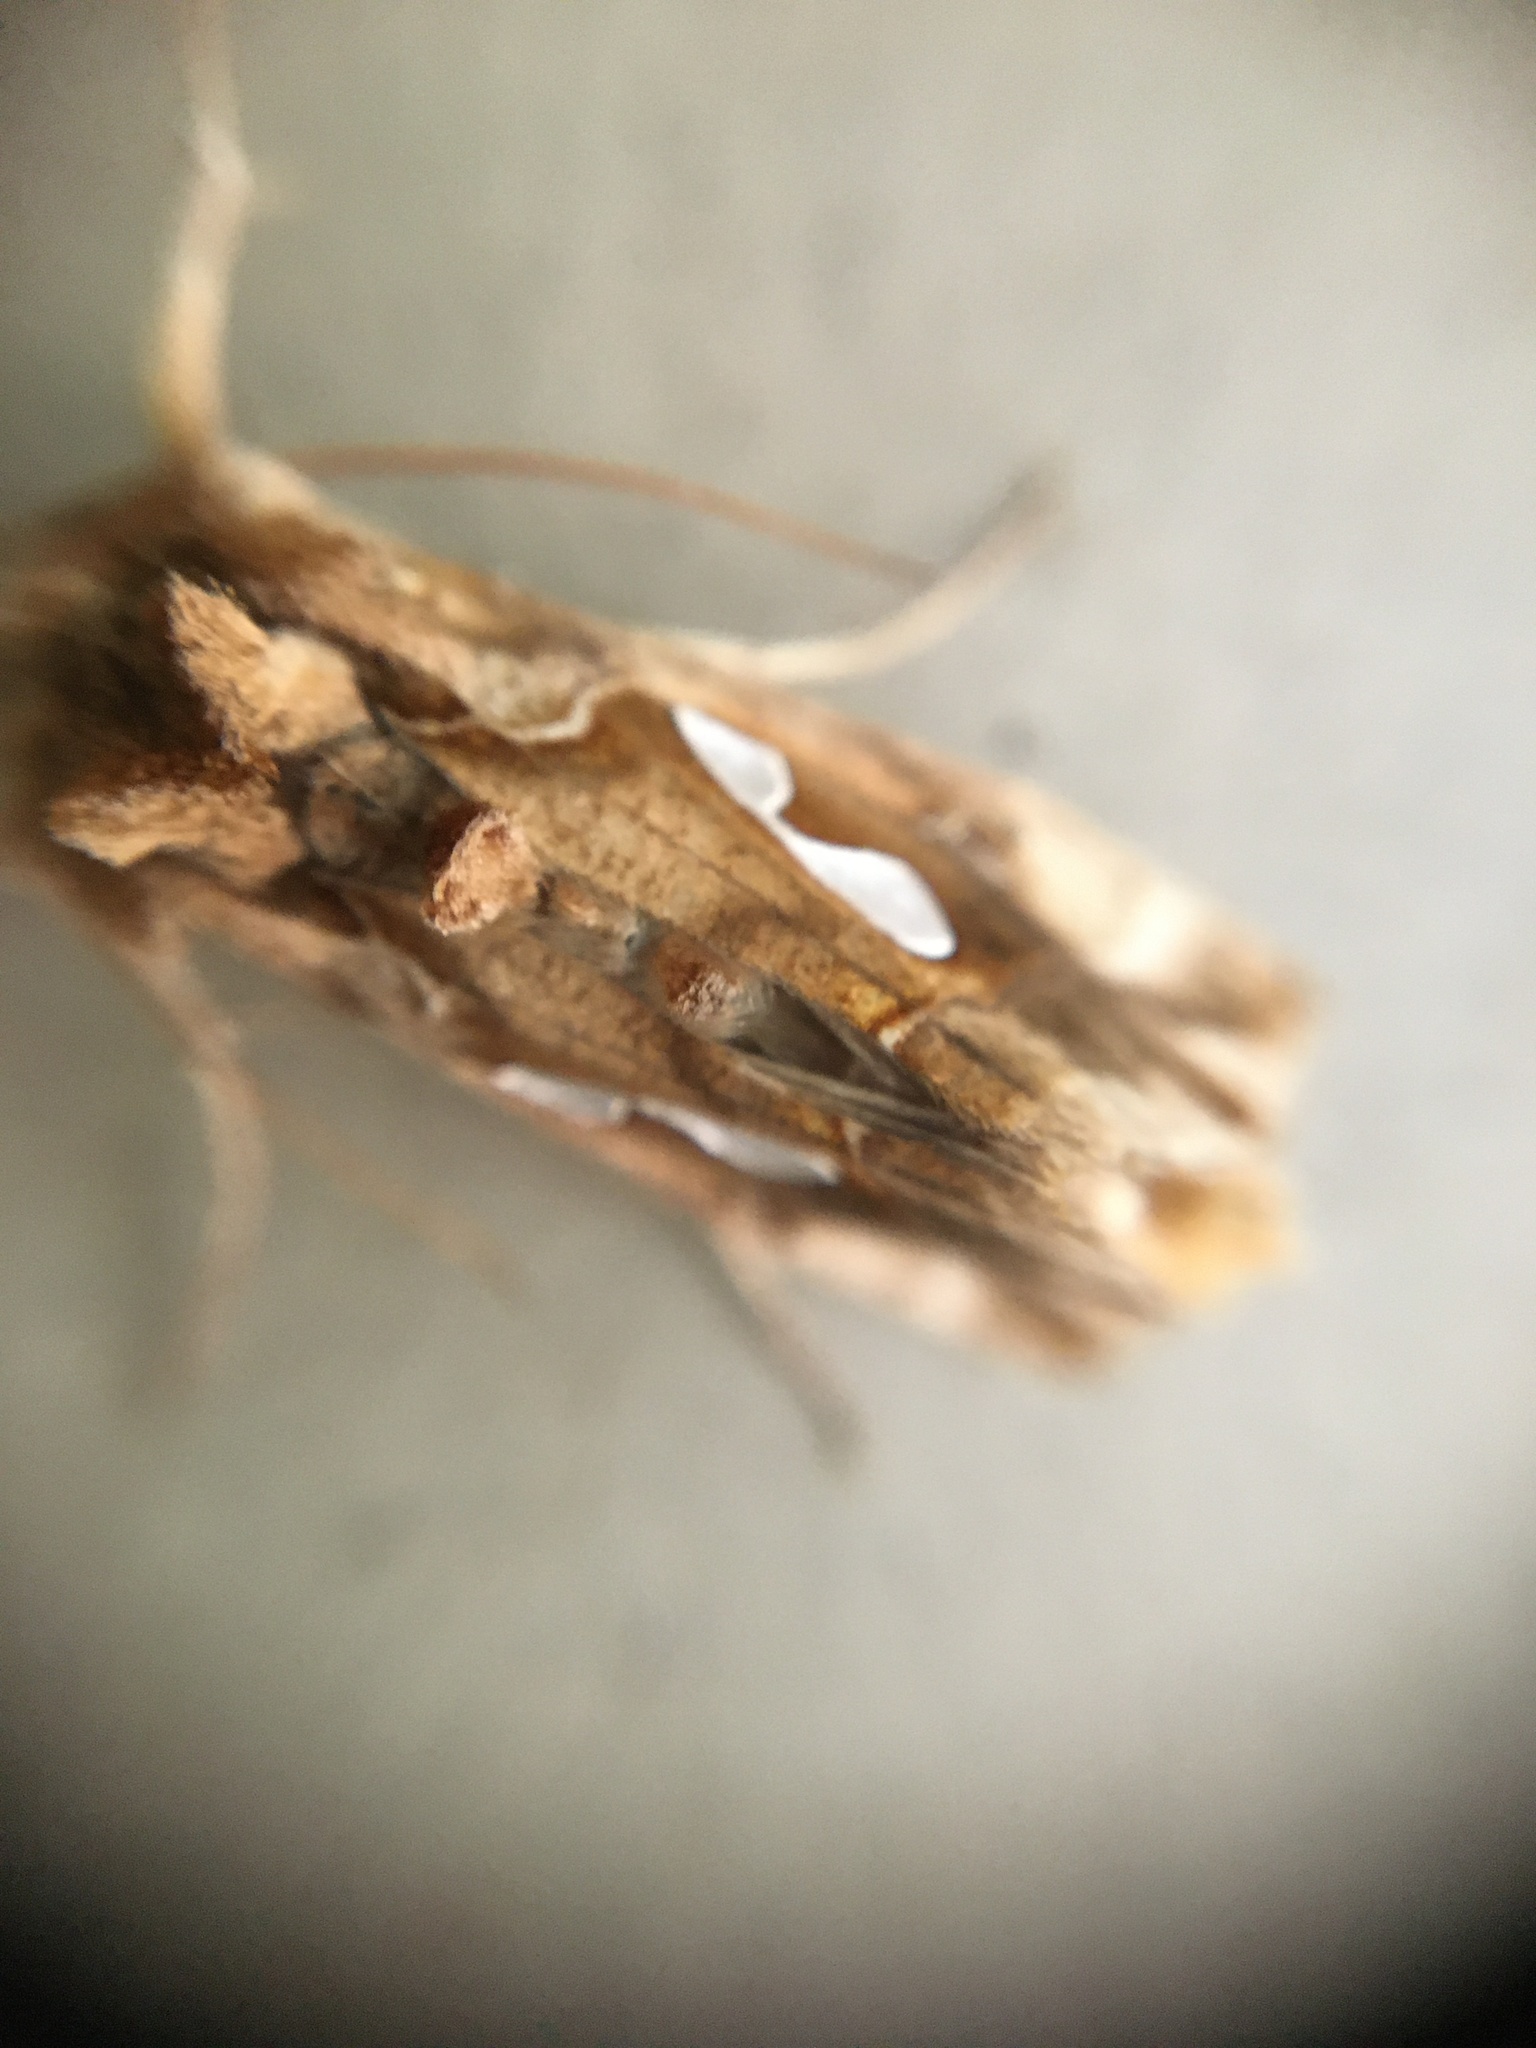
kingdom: Animalia
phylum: Arthropoda
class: Insecta
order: Lepidoptera
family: Noctuidae
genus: Megalographa
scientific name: Megalographa biloba
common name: Cutworm
